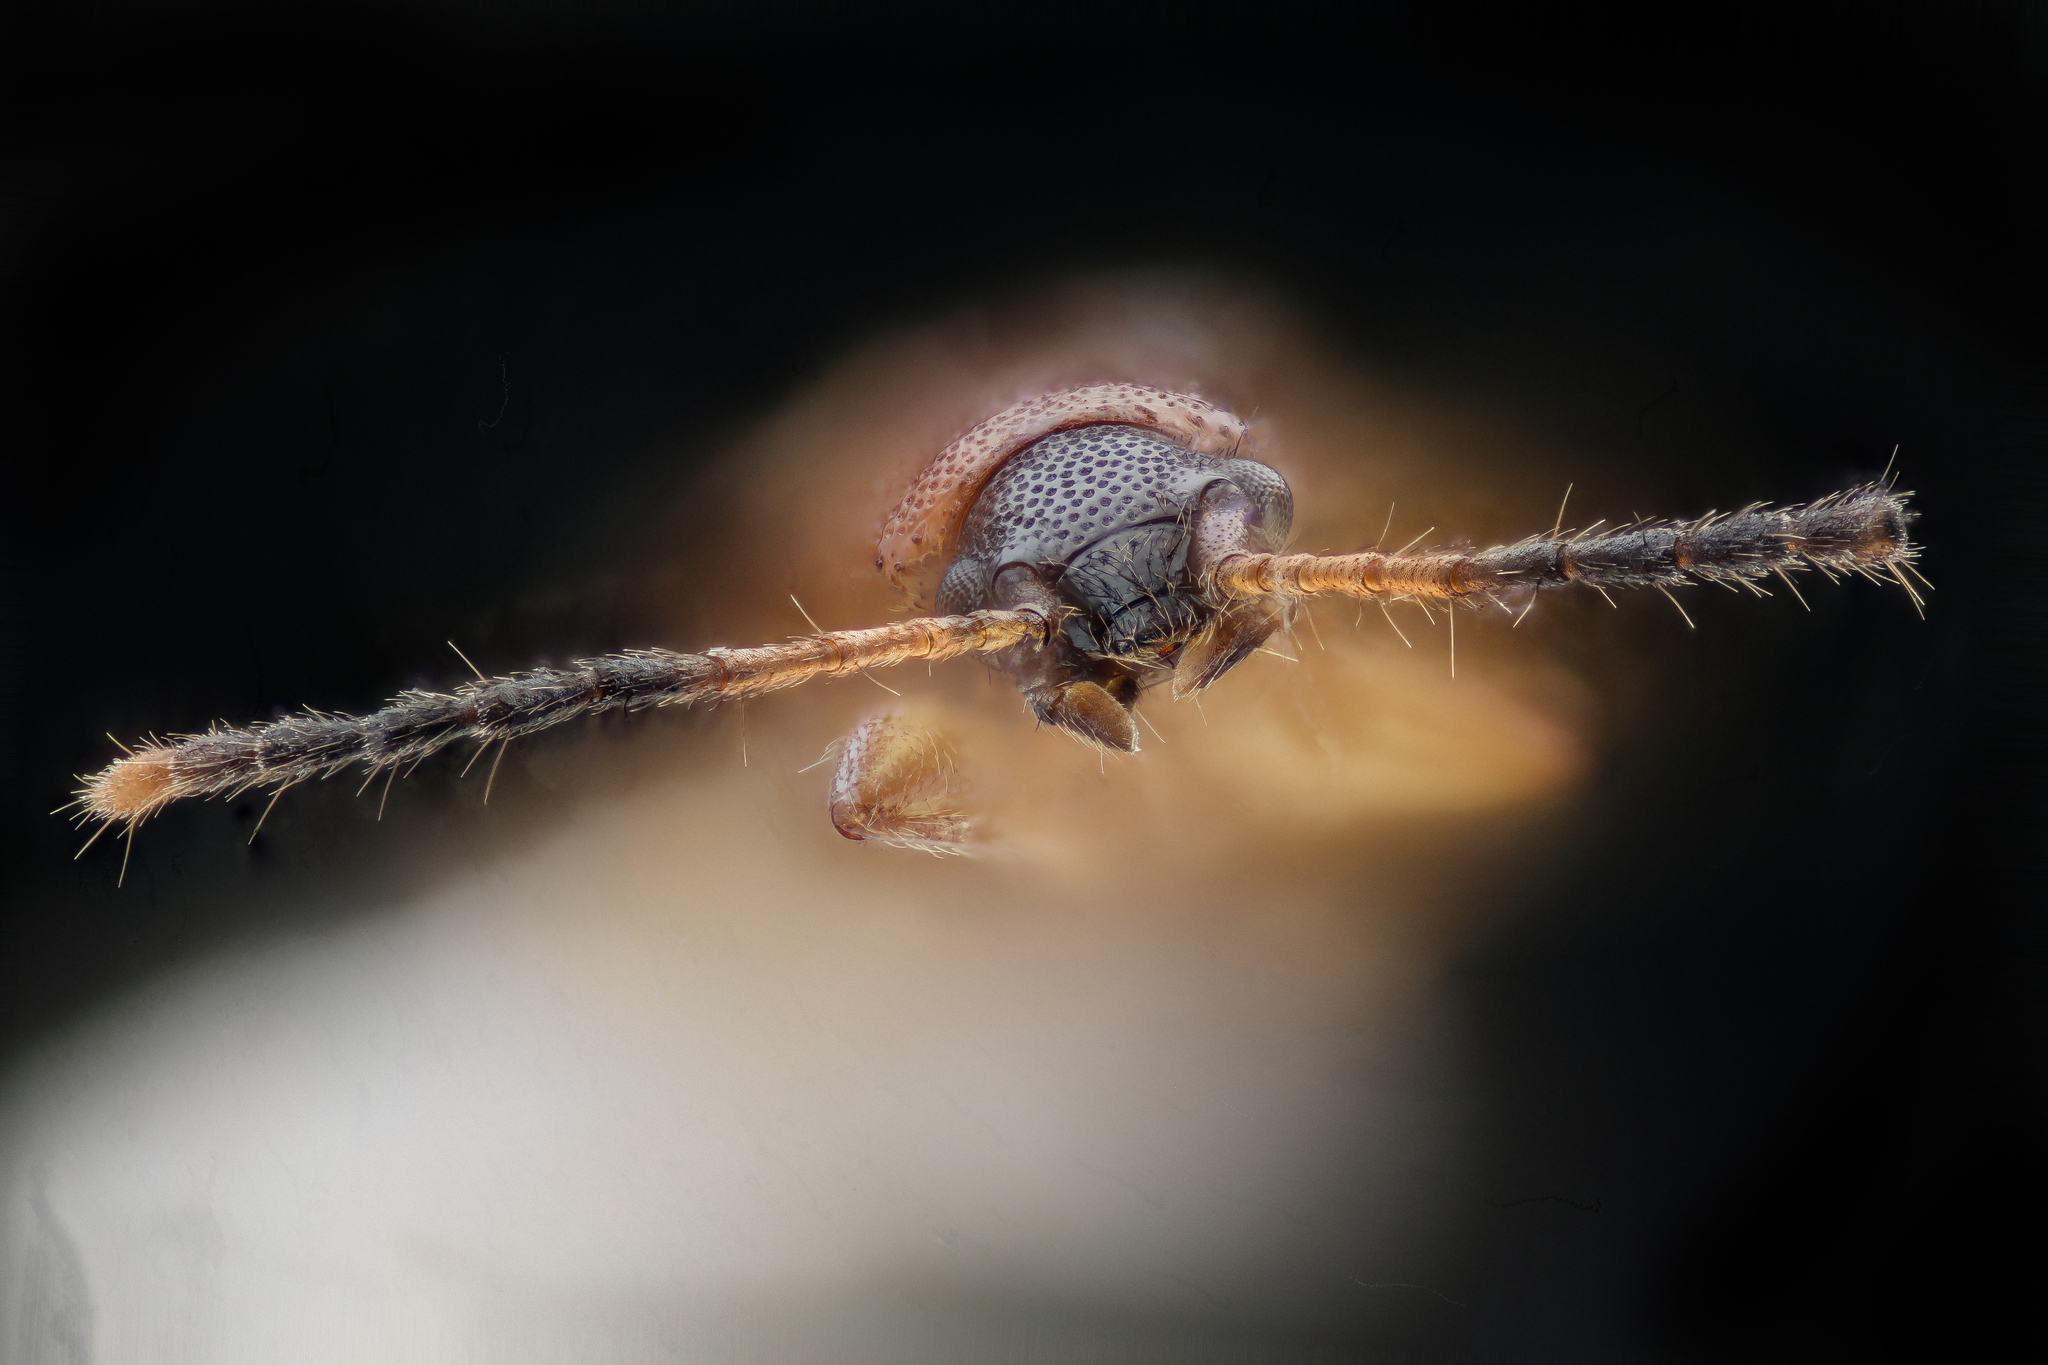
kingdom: Animalia
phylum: Arthropoda
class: Insecta
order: Coleoptera
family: Silvanidae
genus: Telephanus
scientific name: Telephanus velox
